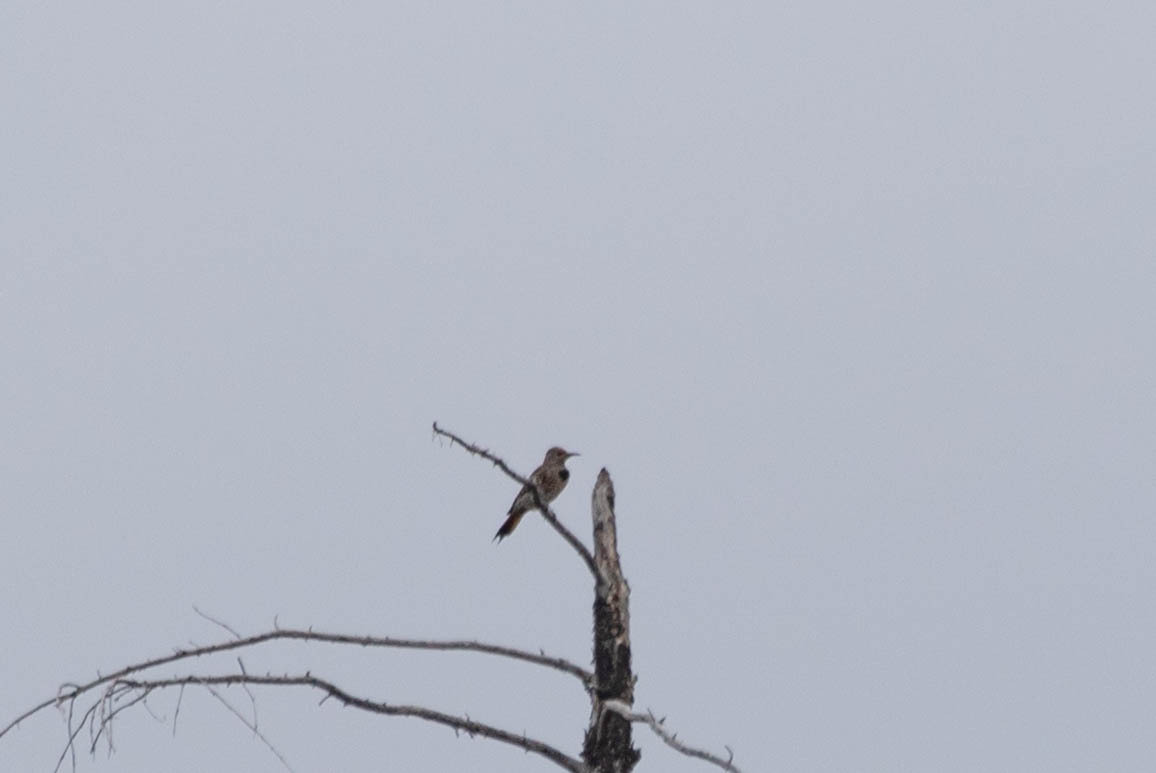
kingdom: Animalia
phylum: Chordata
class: Aves
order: Piciformes
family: Picidae
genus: Colaptes
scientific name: Colaptes auratus
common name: Northern flicker
